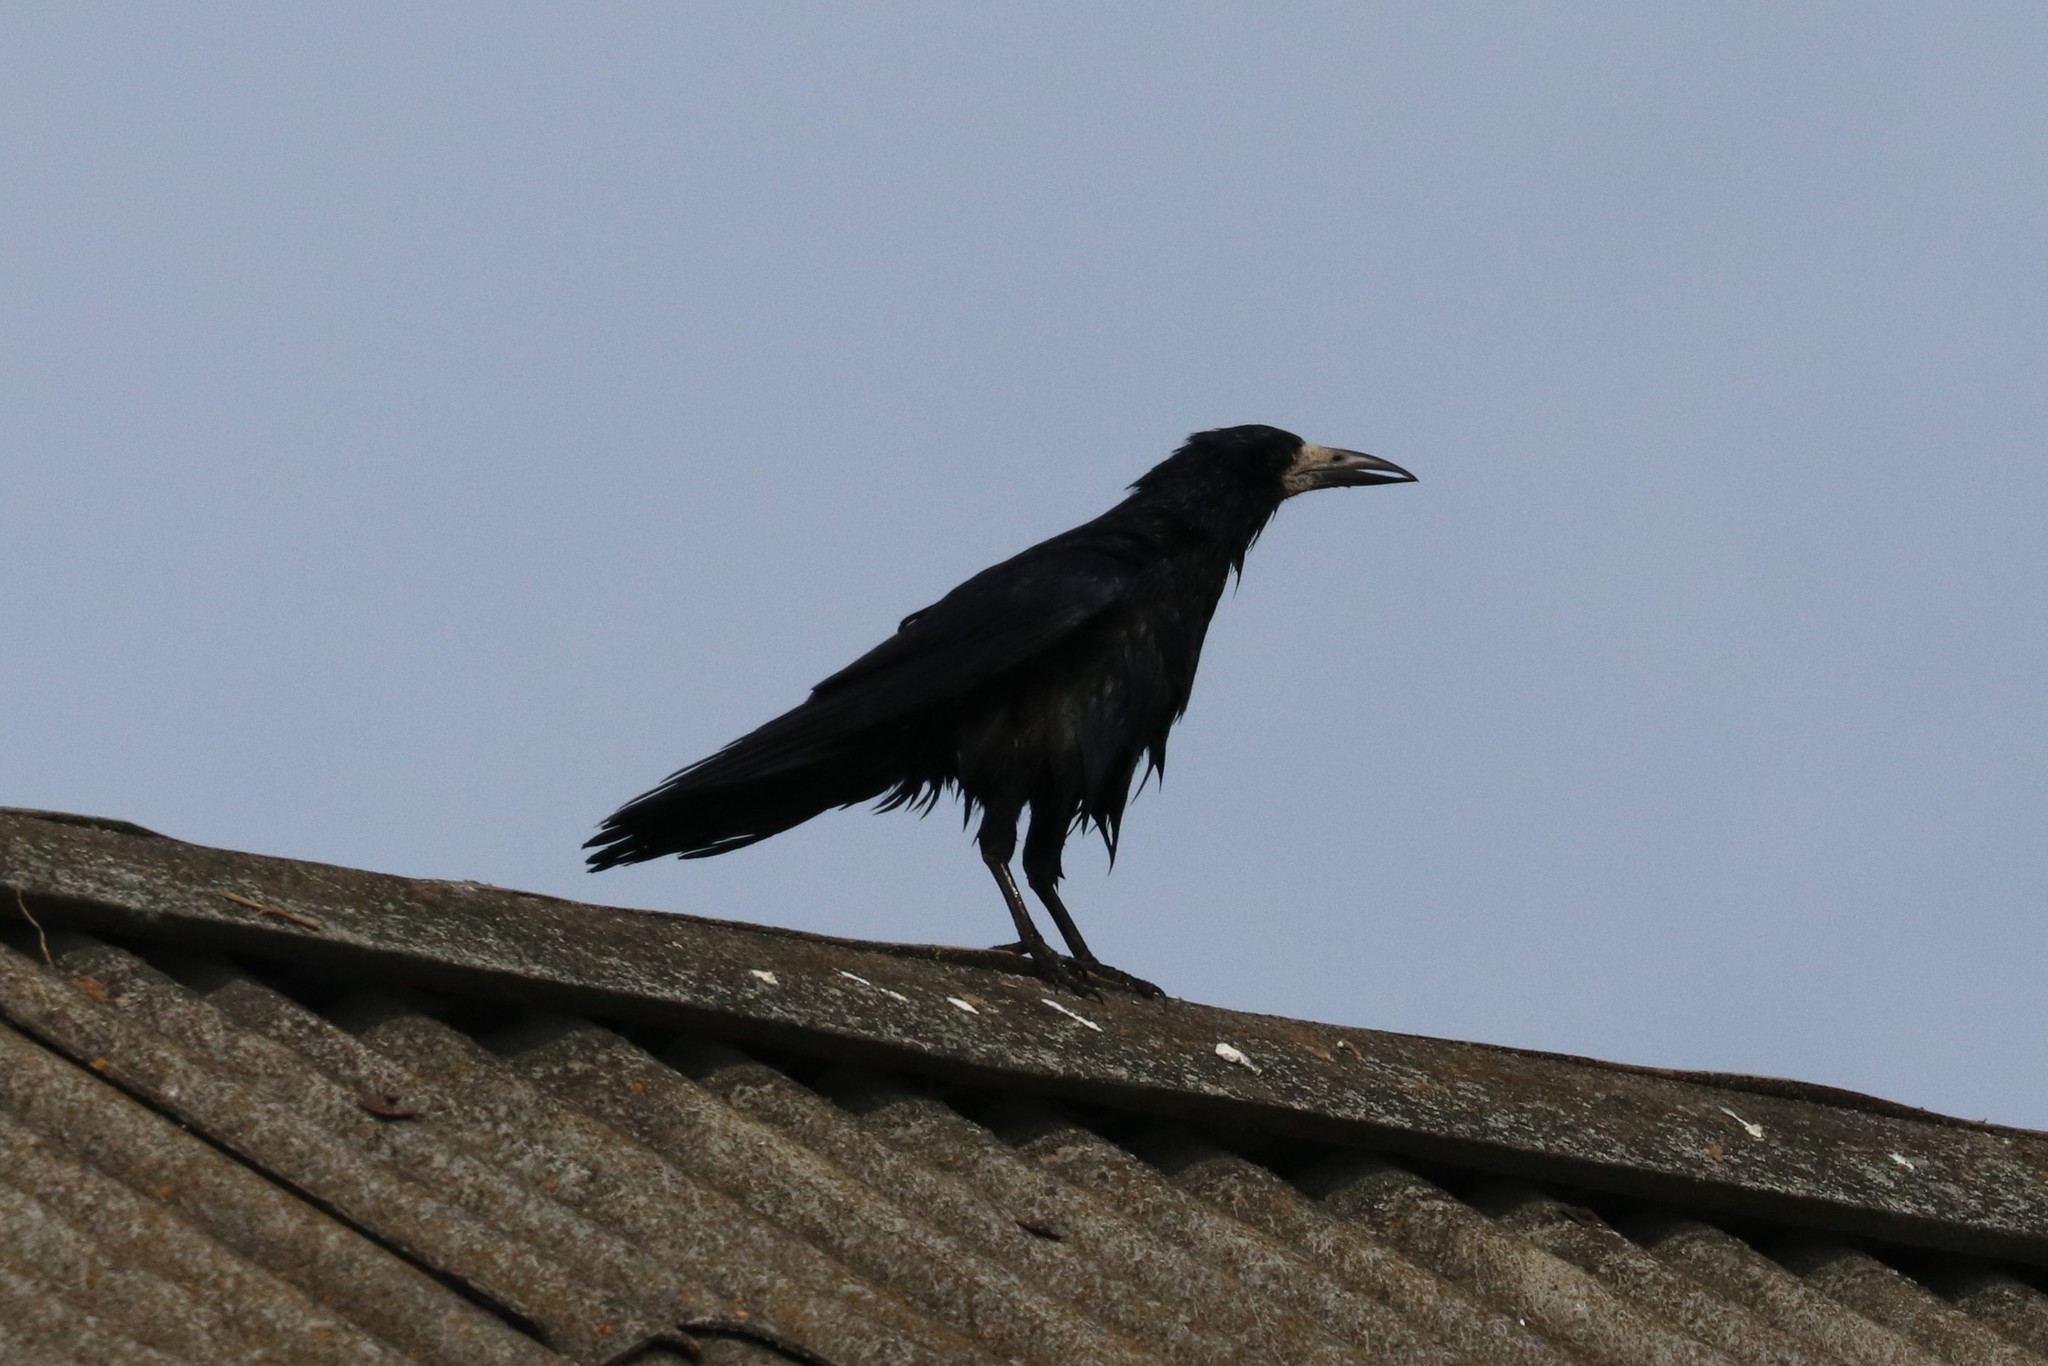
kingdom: Animalia
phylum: Chordata
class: Aves
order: Passeriformes
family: Corvidae
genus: Corvus
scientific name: Corvus frugilegus
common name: Rook
